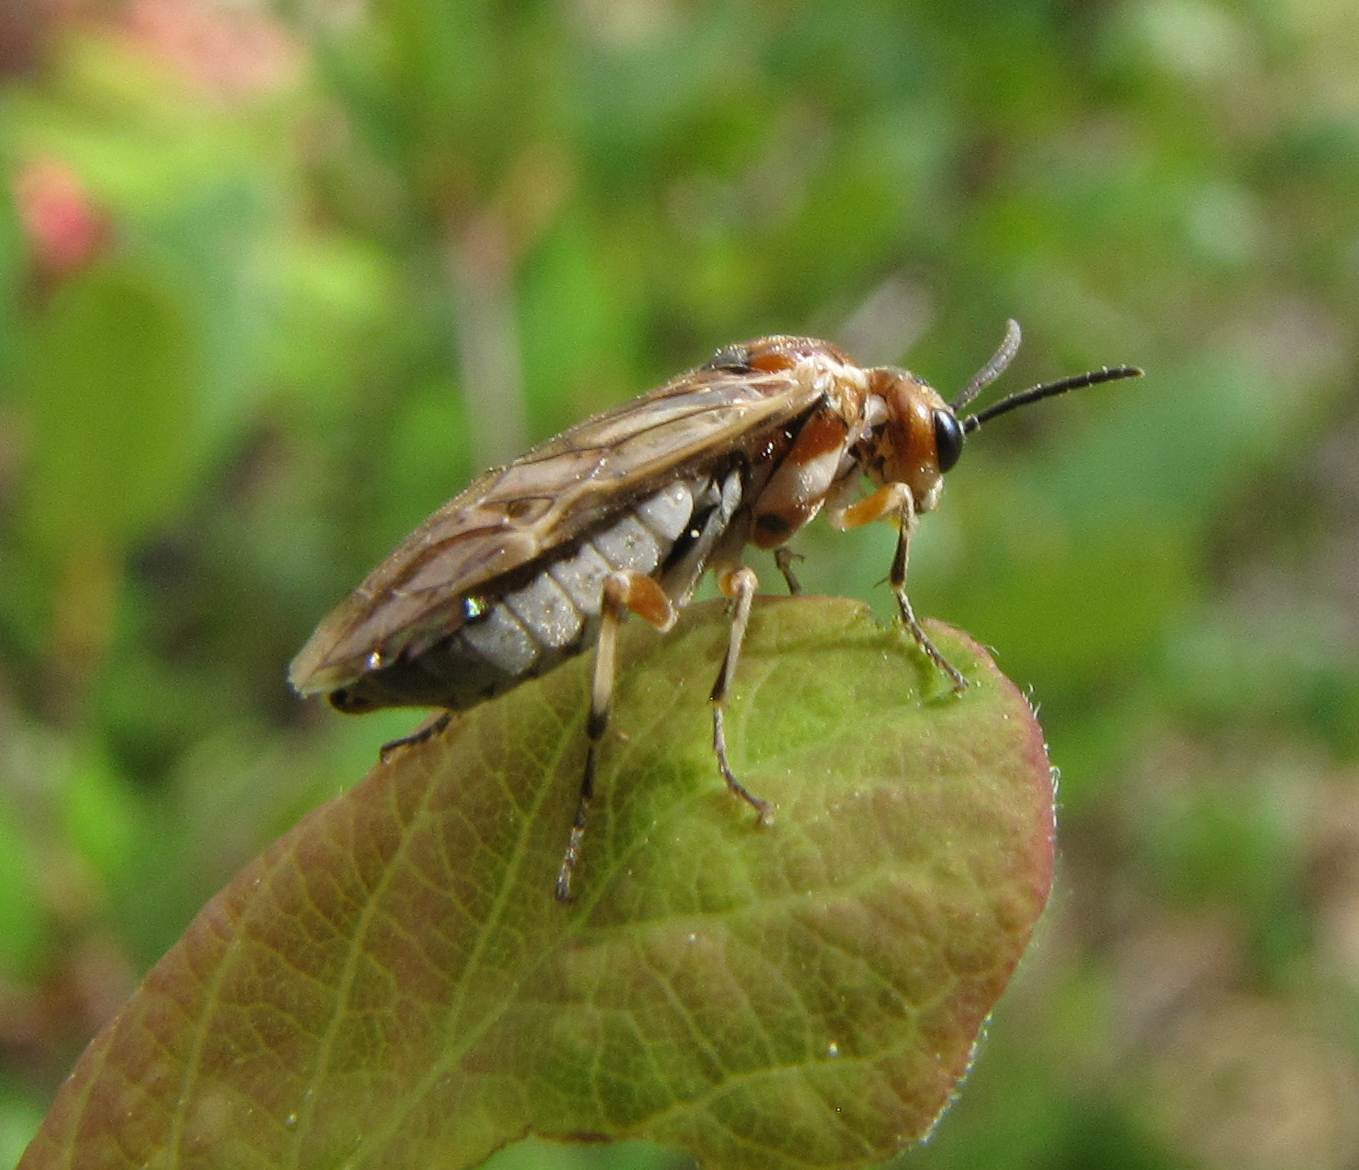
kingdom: Animalia
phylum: Arthropoda
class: Insecta
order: Hymenoptera
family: Tenthredinidae
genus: Zaschizonyx
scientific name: Zaschizonyx
